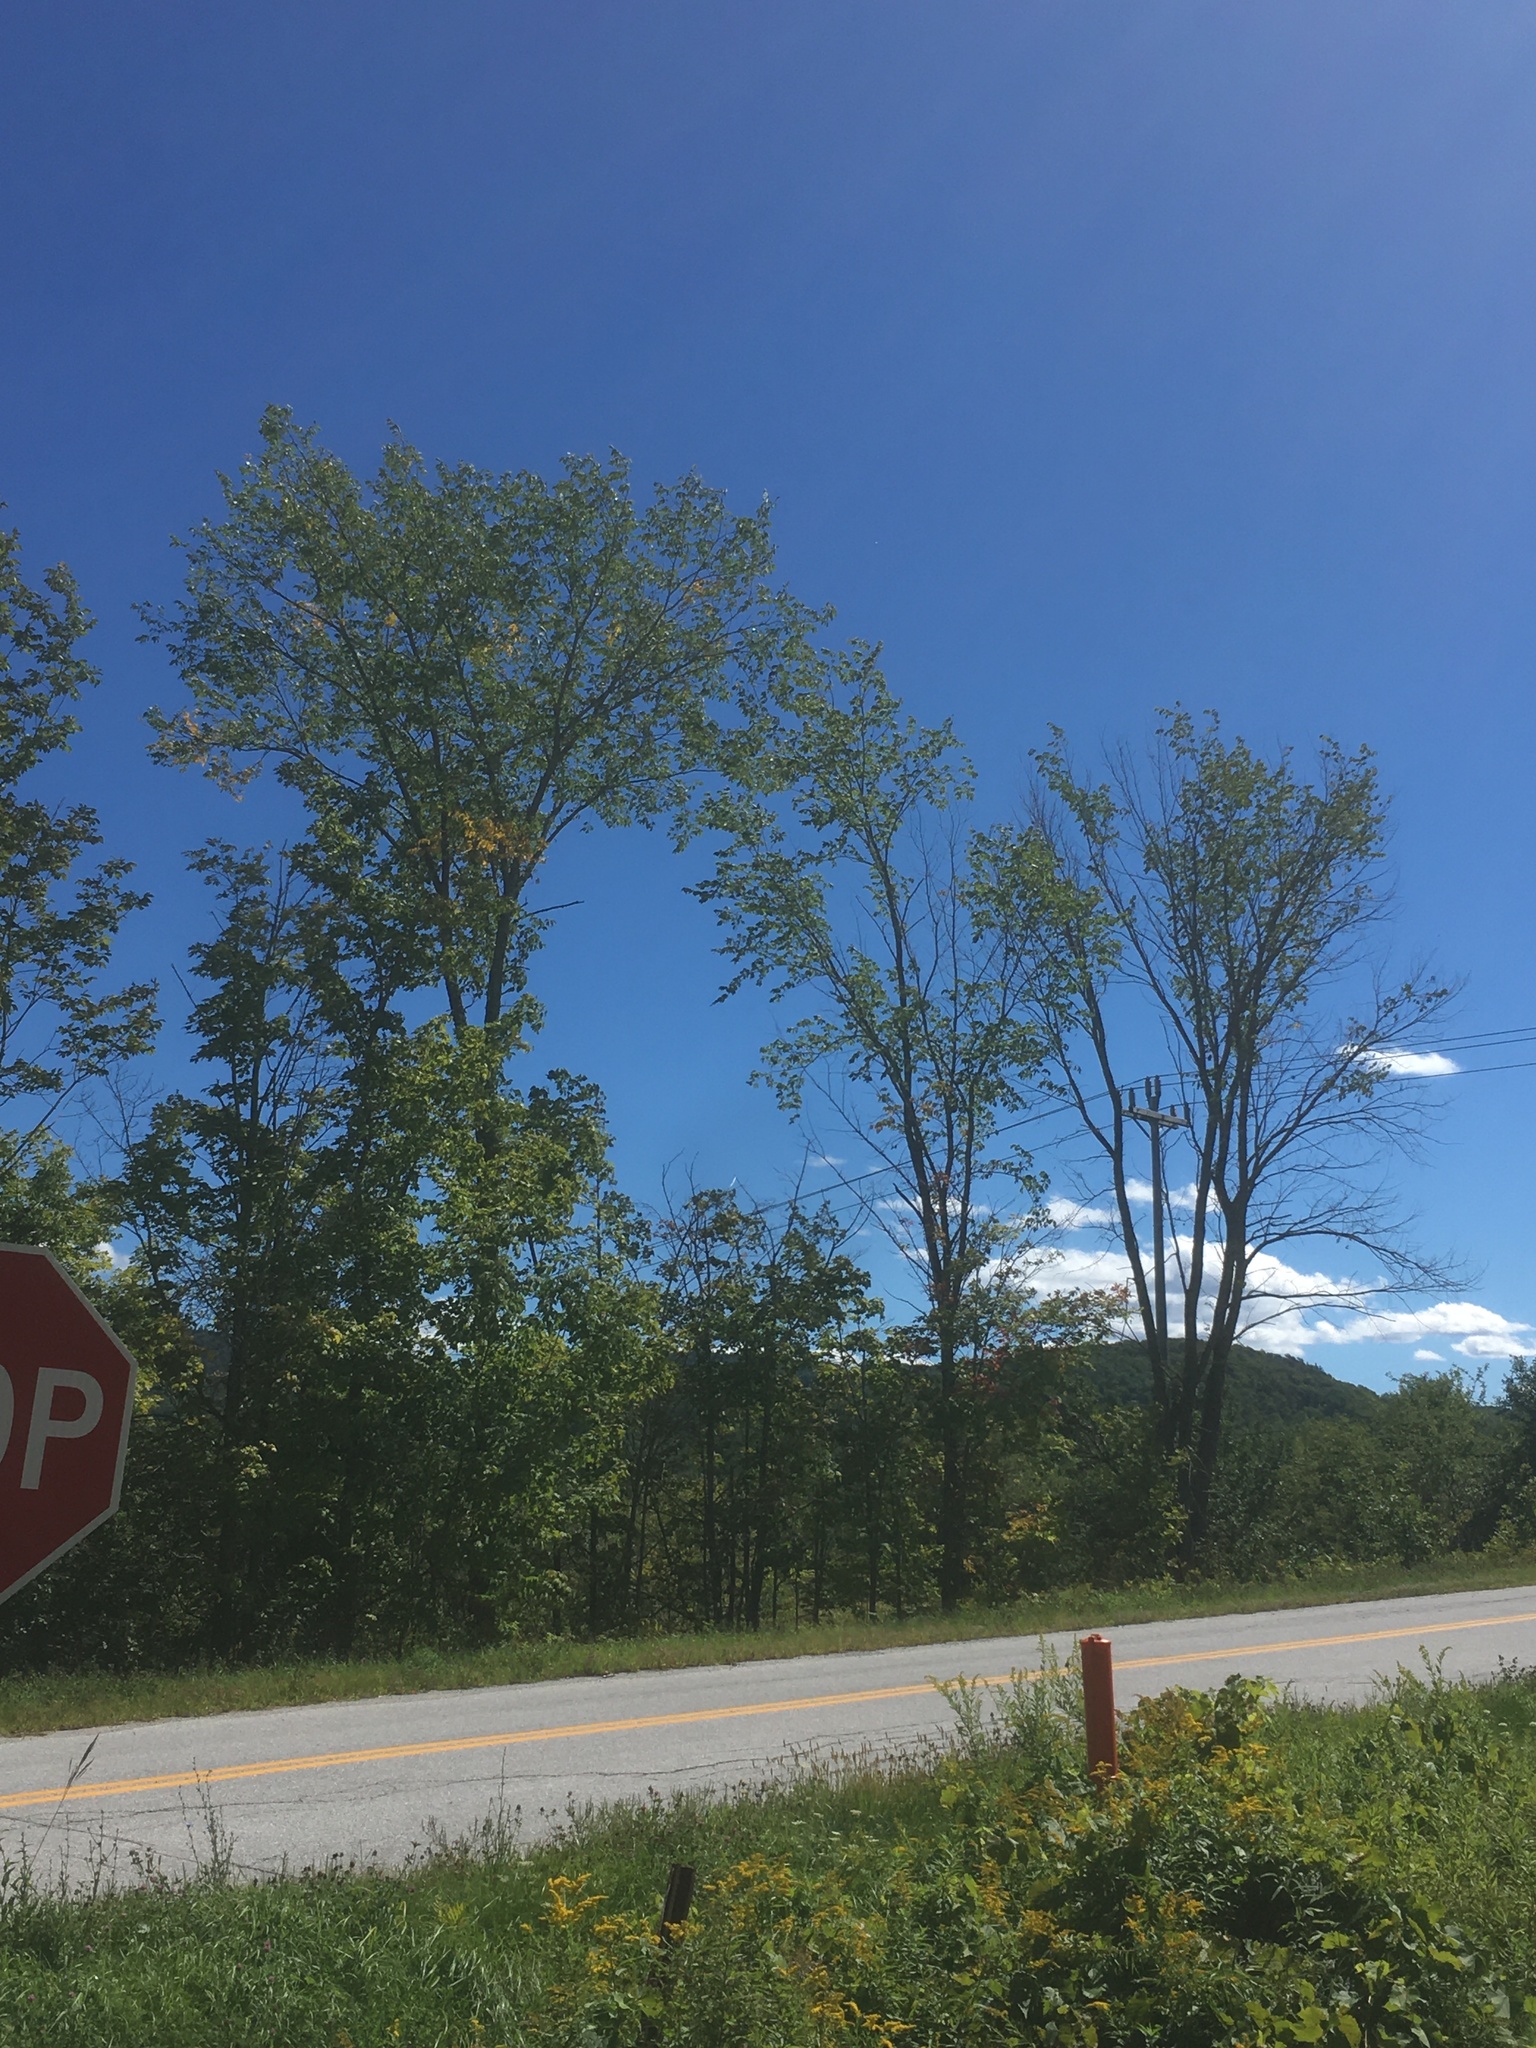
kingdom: Plantae
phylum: Tracheophyta
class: Magnoliopsida
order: Rosales
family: Ulmaceae
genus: Ulmus
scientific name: Ulmus americana
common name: American elm
